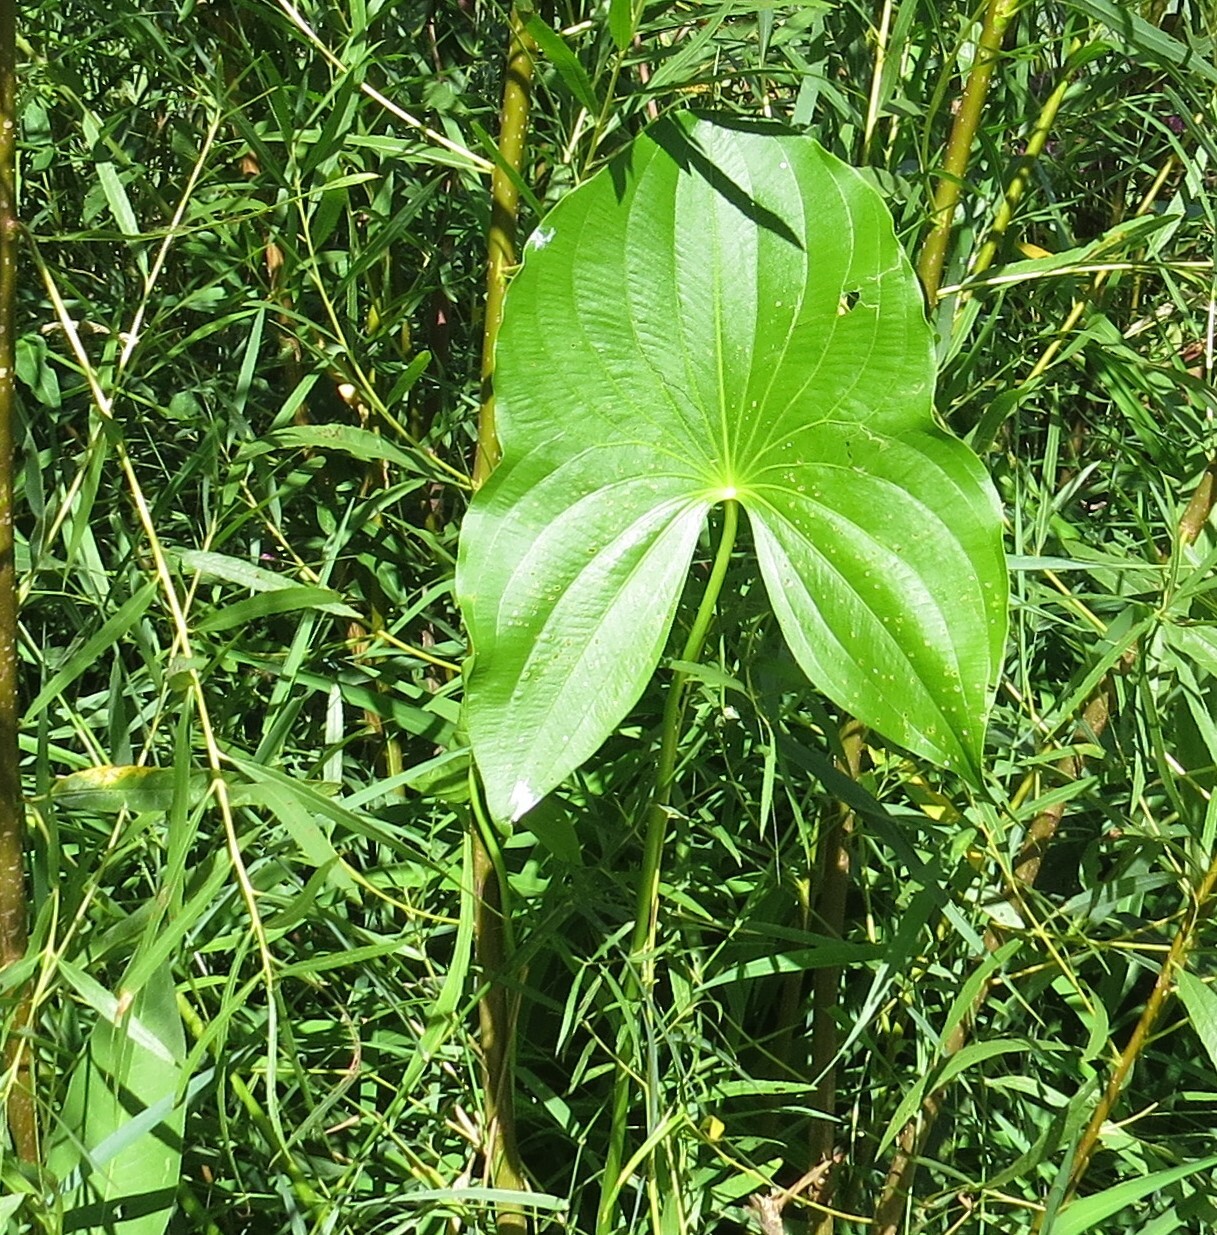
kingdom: Plantae
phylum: Tracheophyta
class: Liliopsida
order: Alismatales
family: Alismataceae
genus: Sagittaria
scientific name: Sagittaria latifolia
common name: Duck-potato
